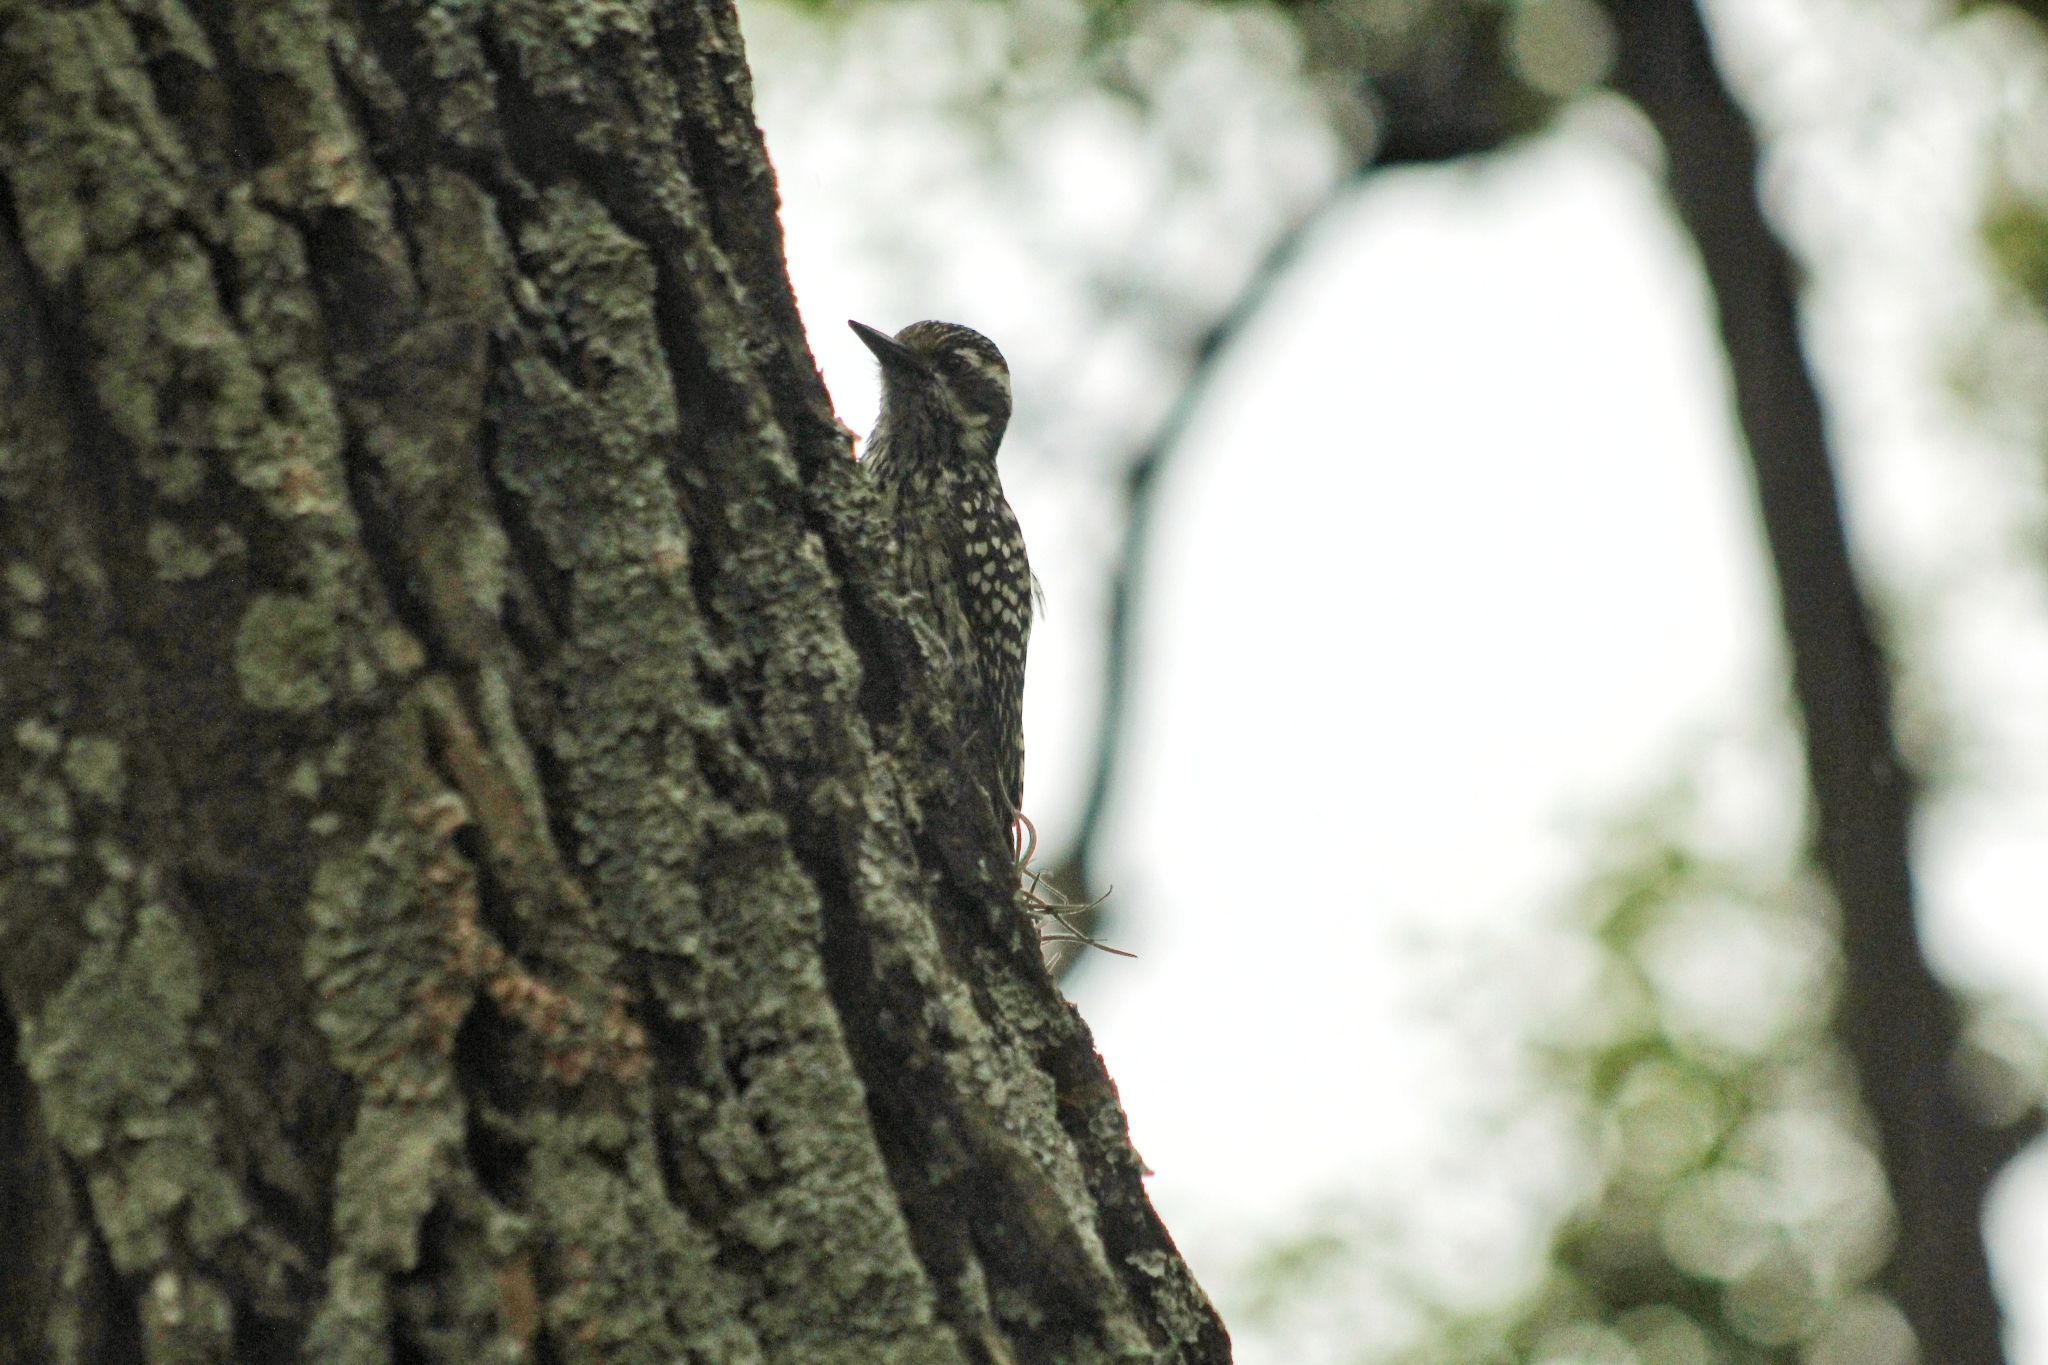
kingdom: Animalia
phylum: Chordata
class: Aves
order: Piciformes
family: Picidae
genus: Veniliornis
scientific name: Veniliornis mixtus
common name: Checkered woodpecker
